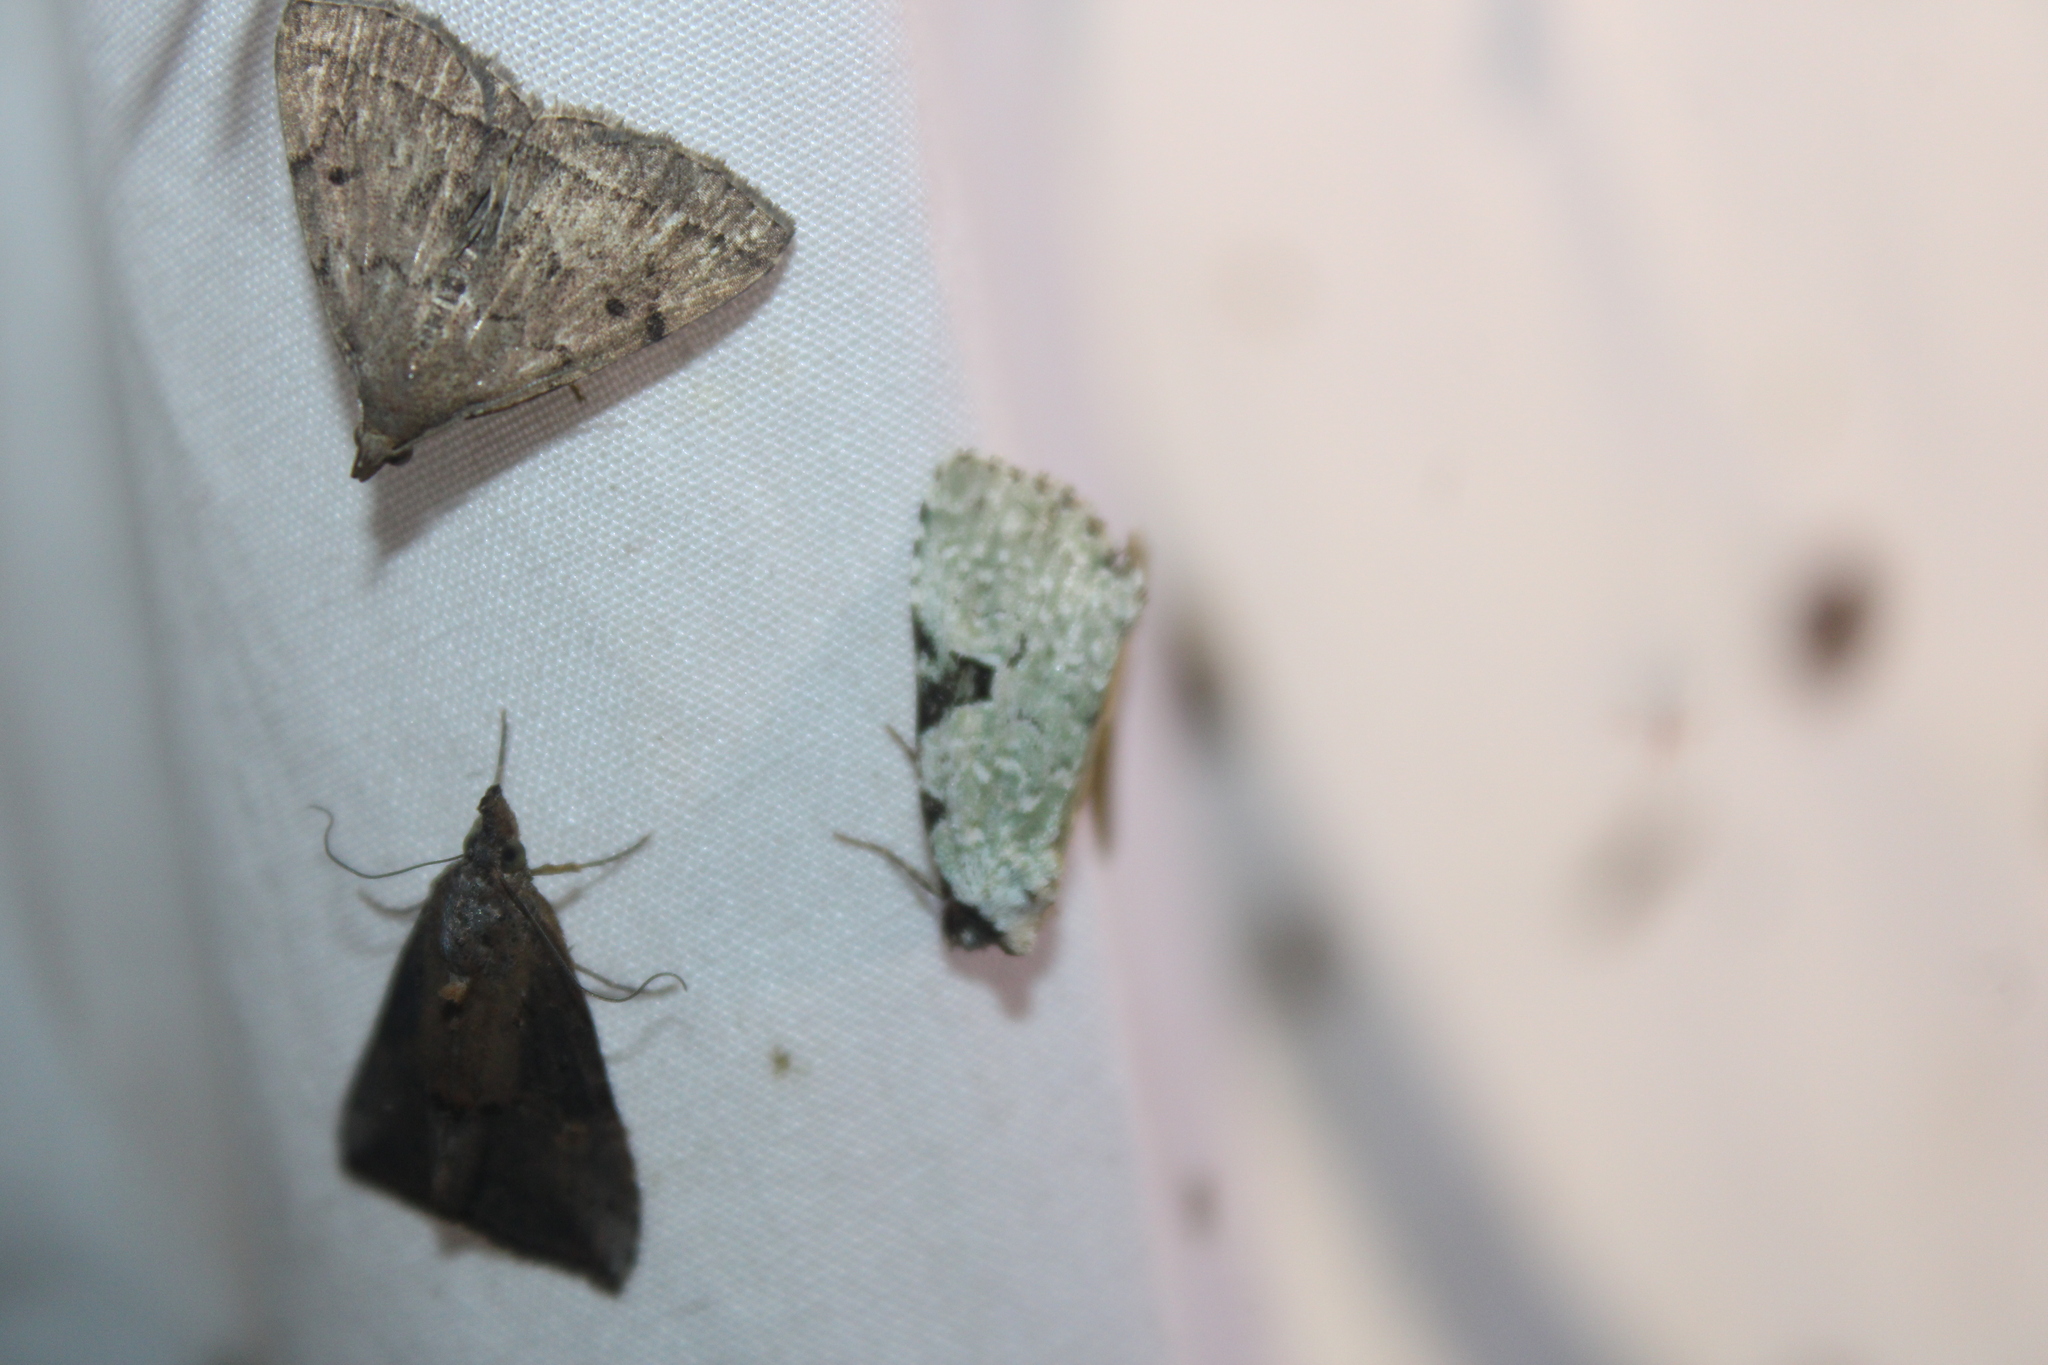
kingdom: Animalia
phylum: Arthropoda
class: Insecta
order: Lepidoptera
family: Noctuidae
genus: Leuconycta
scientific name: Leuconycta diphteroides
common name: Green leuconycta moth
